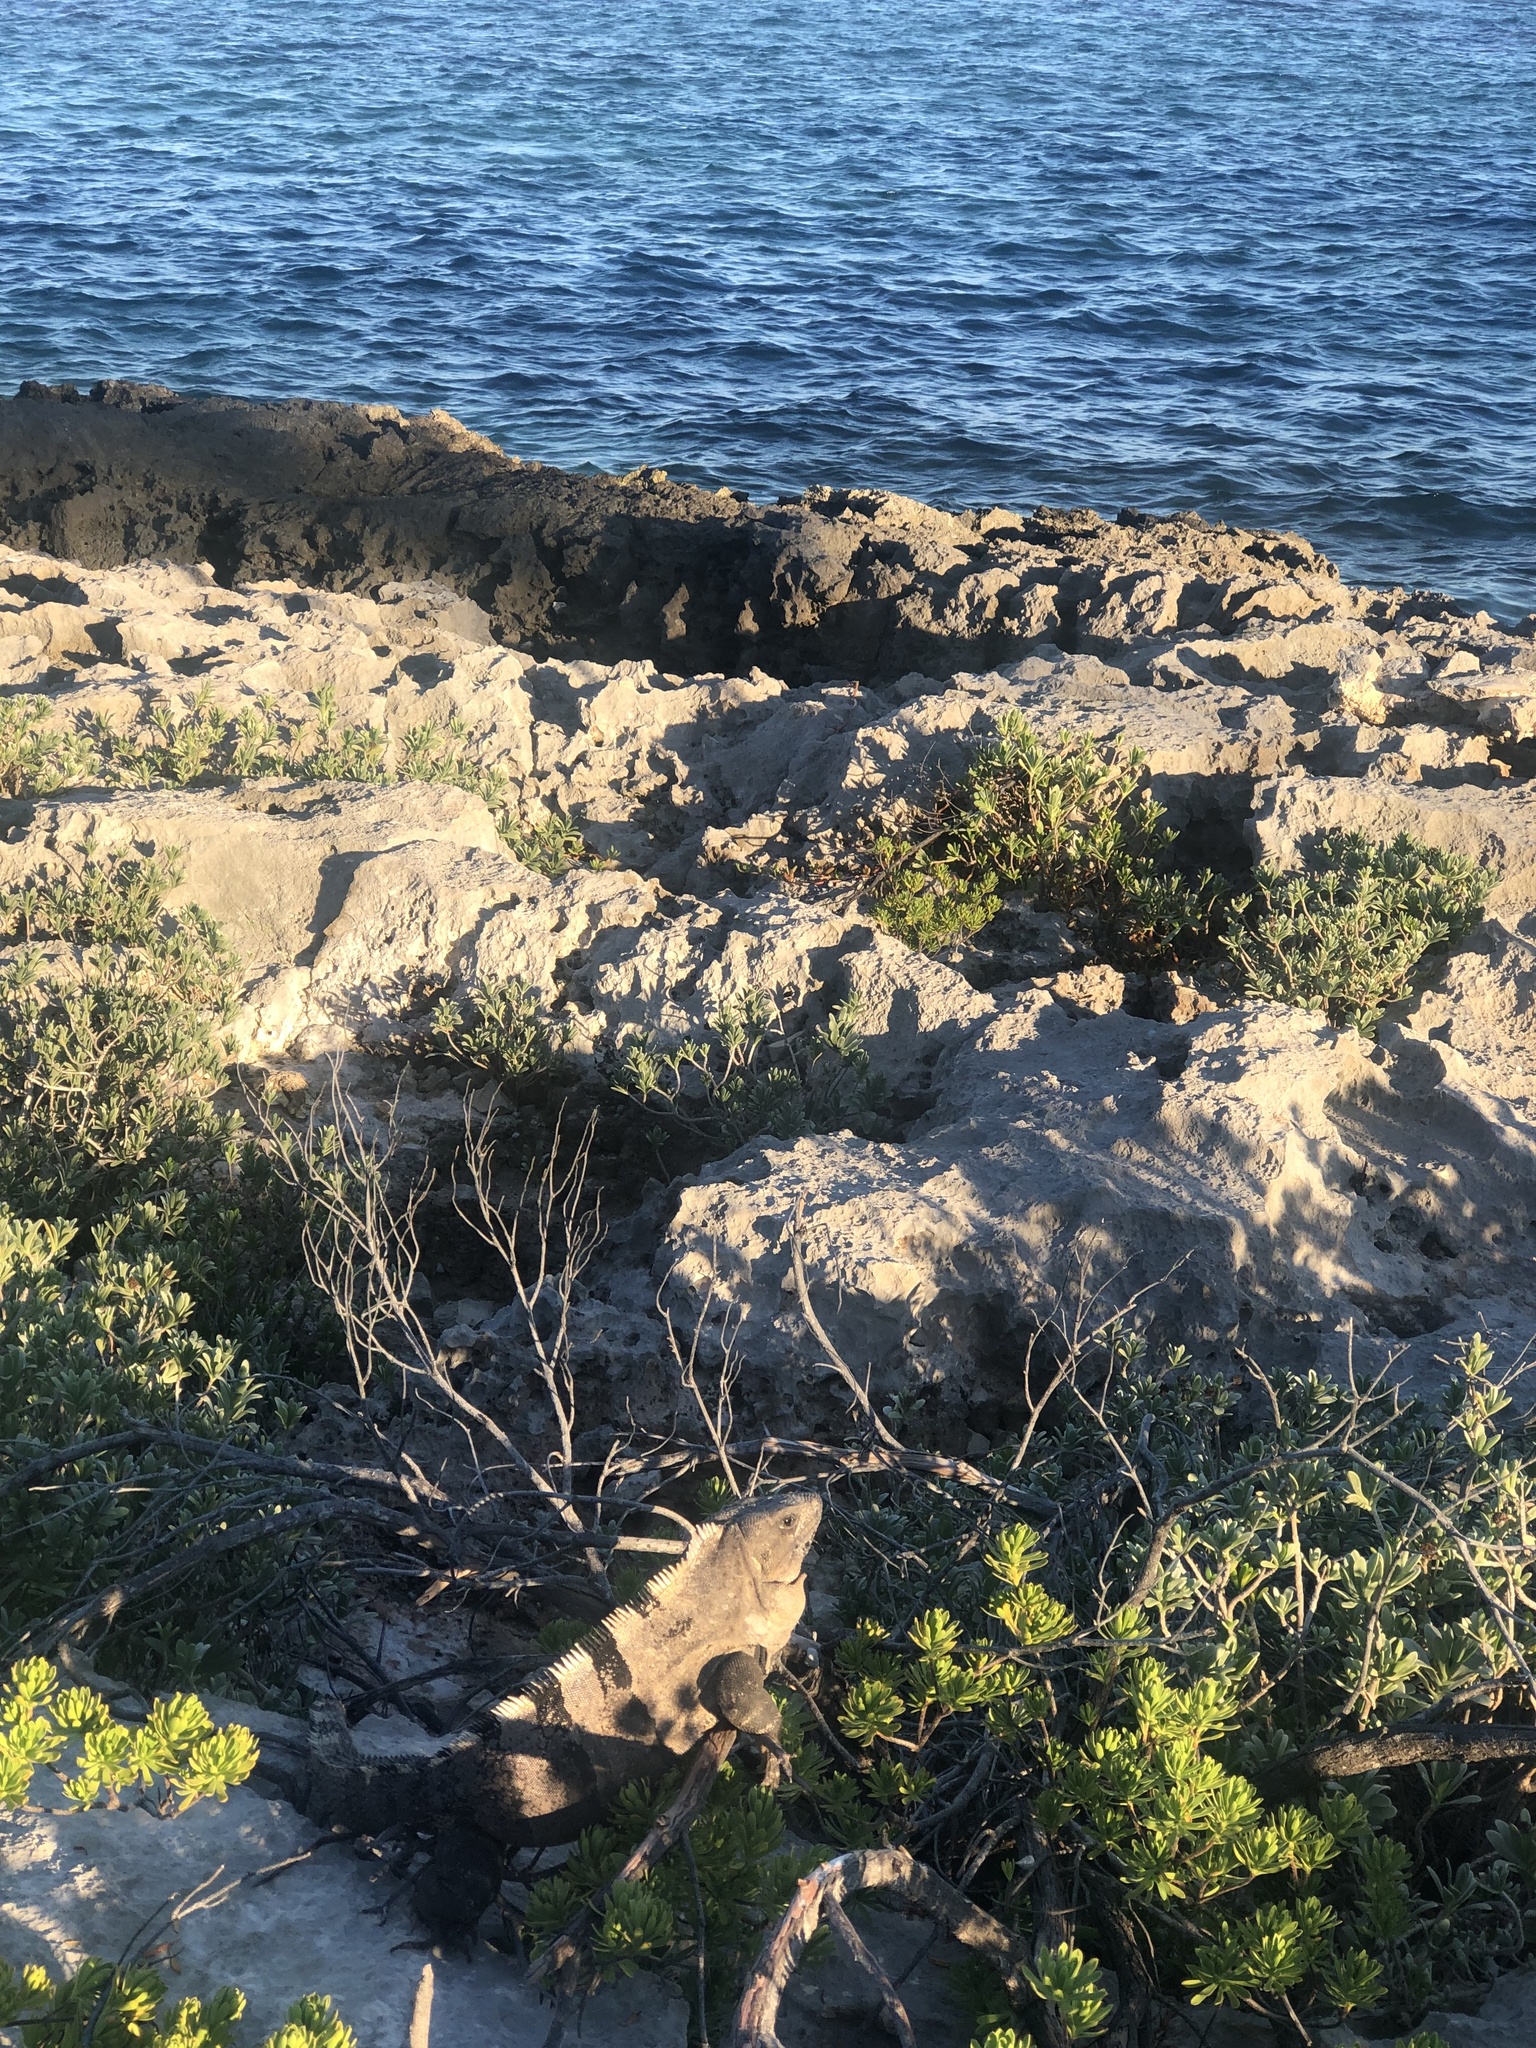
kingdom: Animalia
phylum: Chordata
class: Squamata
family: Iguanidae
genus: Ctenosaura
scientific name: Ctenosaura similis
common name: Black spiny-tailed iguana
